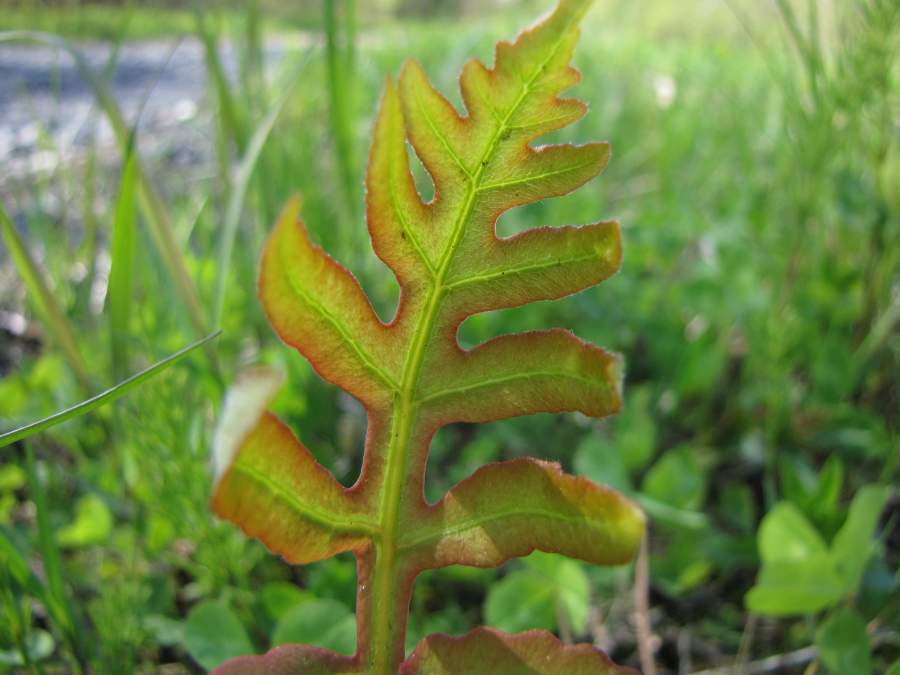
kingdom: Plantae
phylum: Tracheophyta
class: Polypodiopsida
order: Polypodiales
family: Onocleaceae
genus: Onoclea
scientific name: Onoclea sensibilis
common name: Sensitive fern
